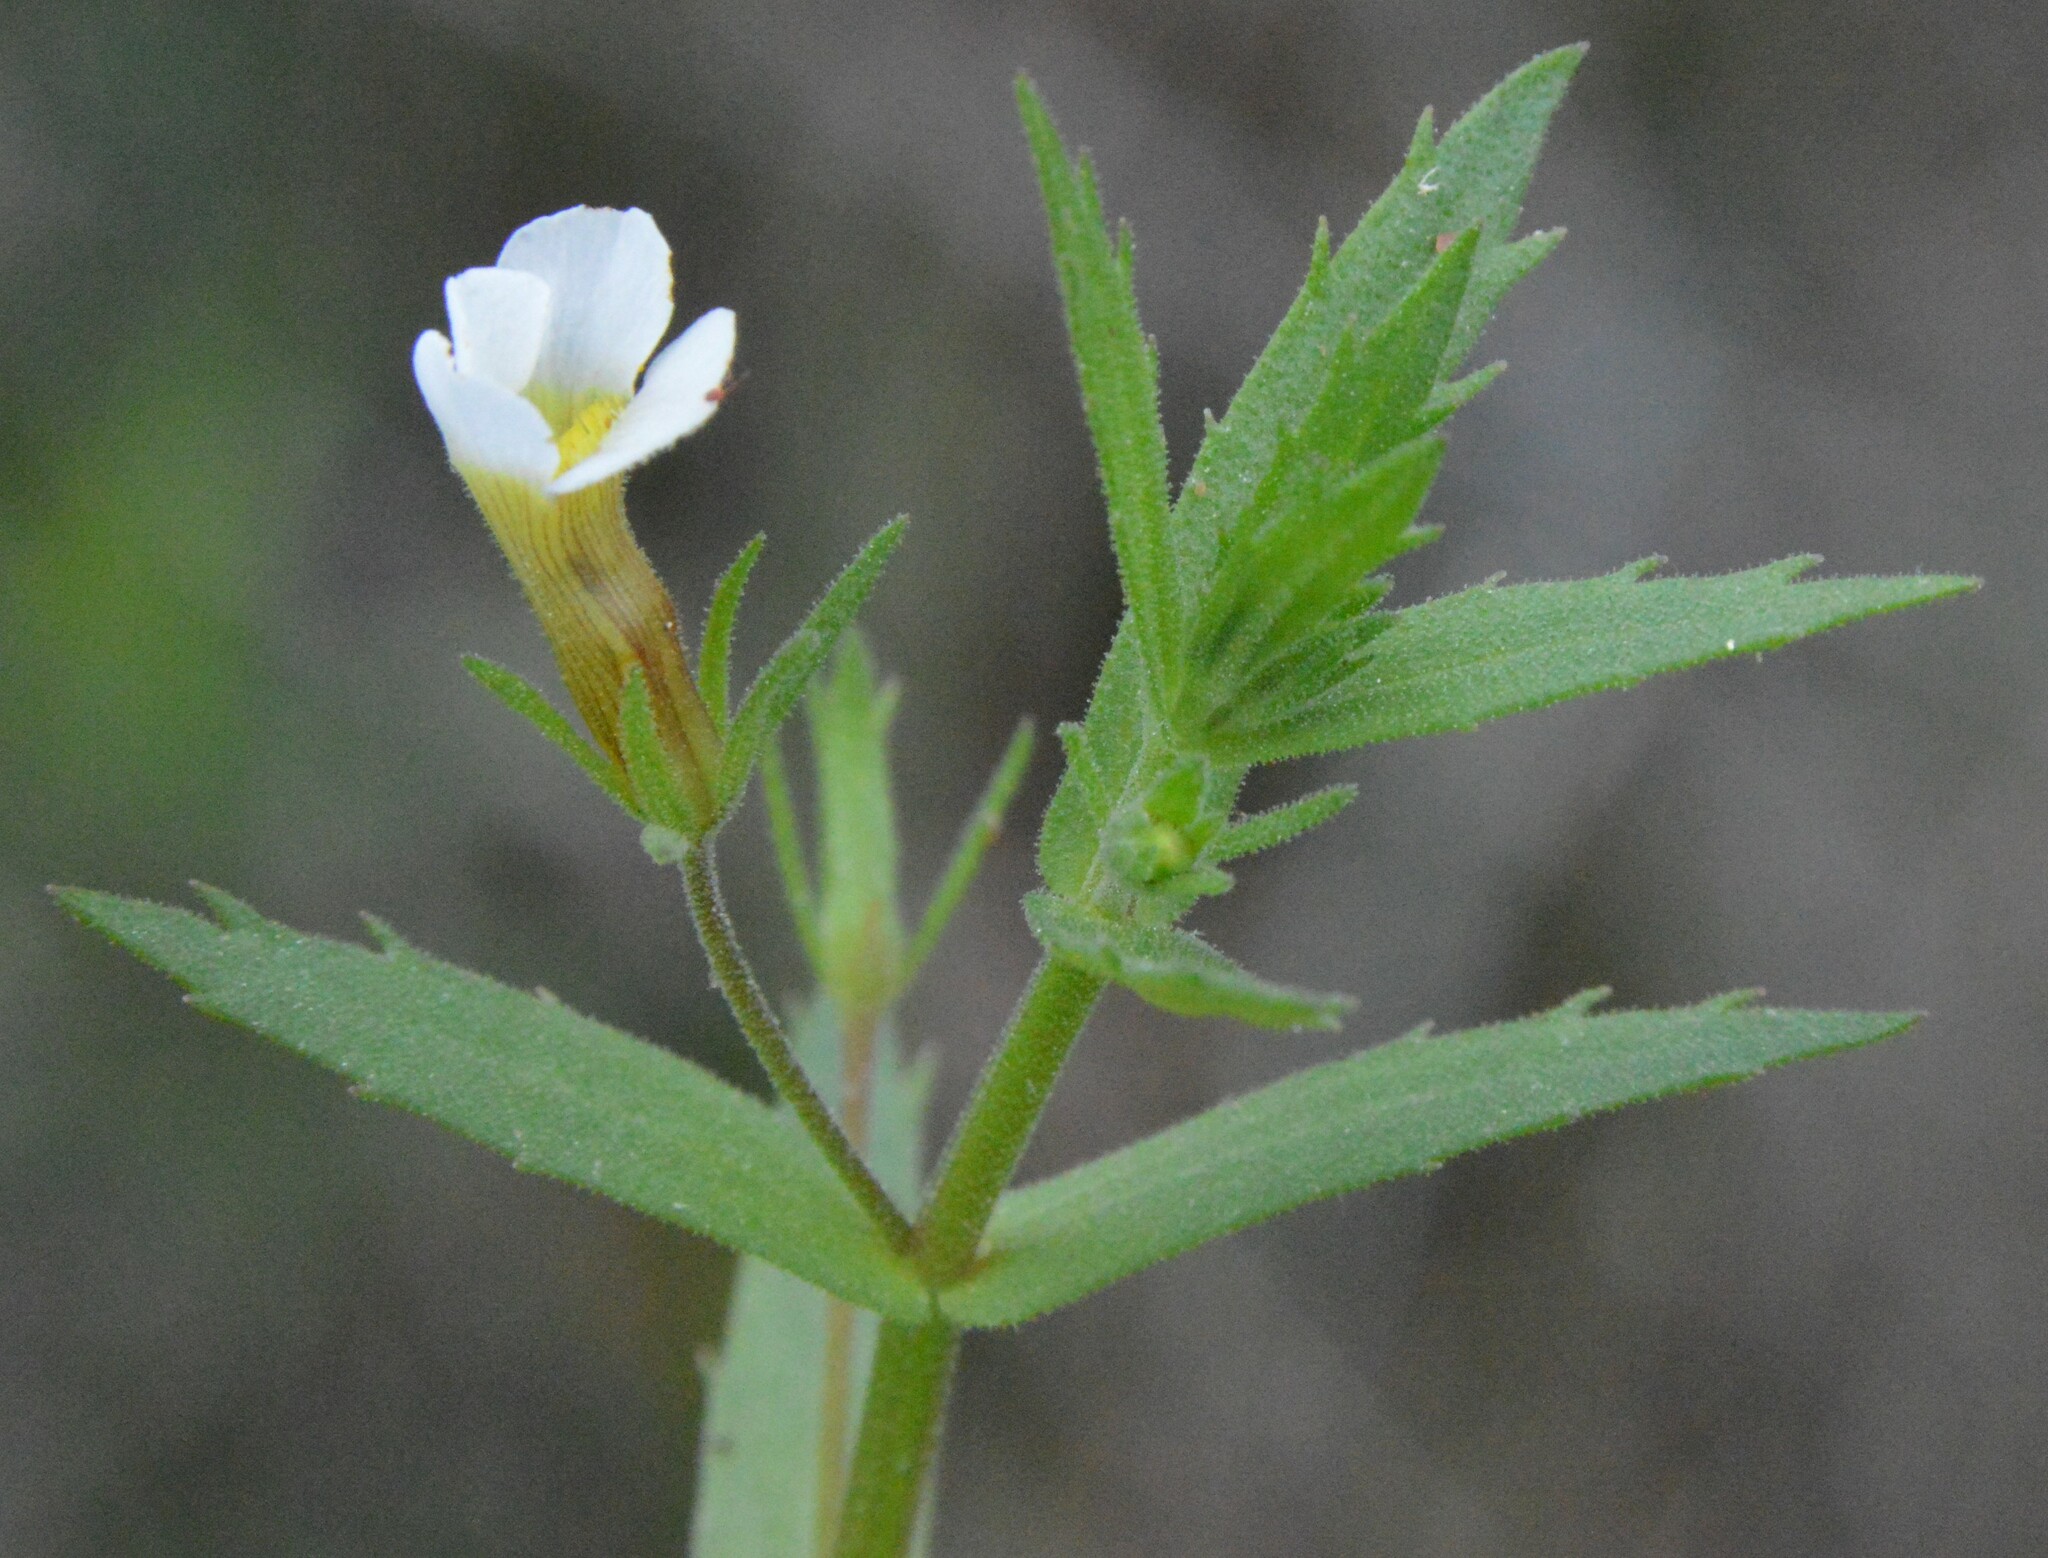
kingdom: Plantae
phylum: Tracheophyta
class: Magnoliopsida
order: Lamiales
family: Plantaginaceae
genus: Gratiola
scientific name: Gratiola brevifolia
